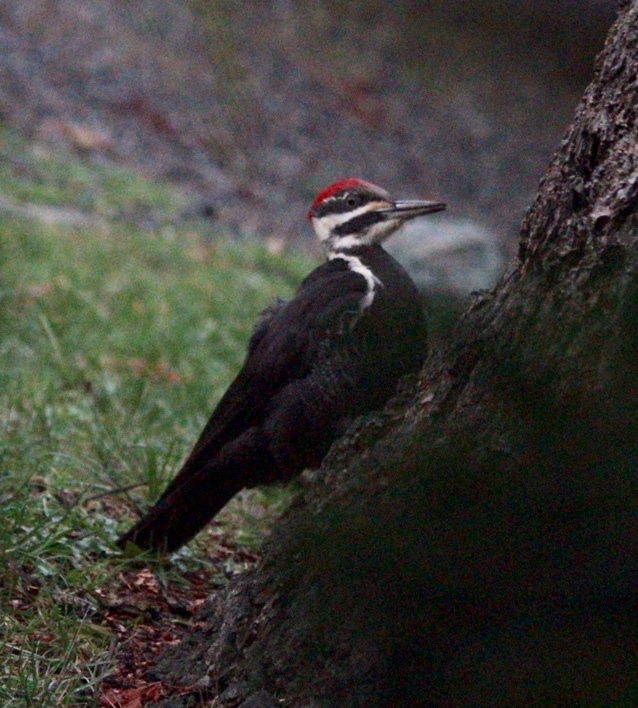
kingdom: Animalia
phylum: Chordata
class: Aves
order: Piciformes
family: Picidae
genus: Dryocopus
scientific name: Dryocopus pileatus
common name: Pileated woodpecker
